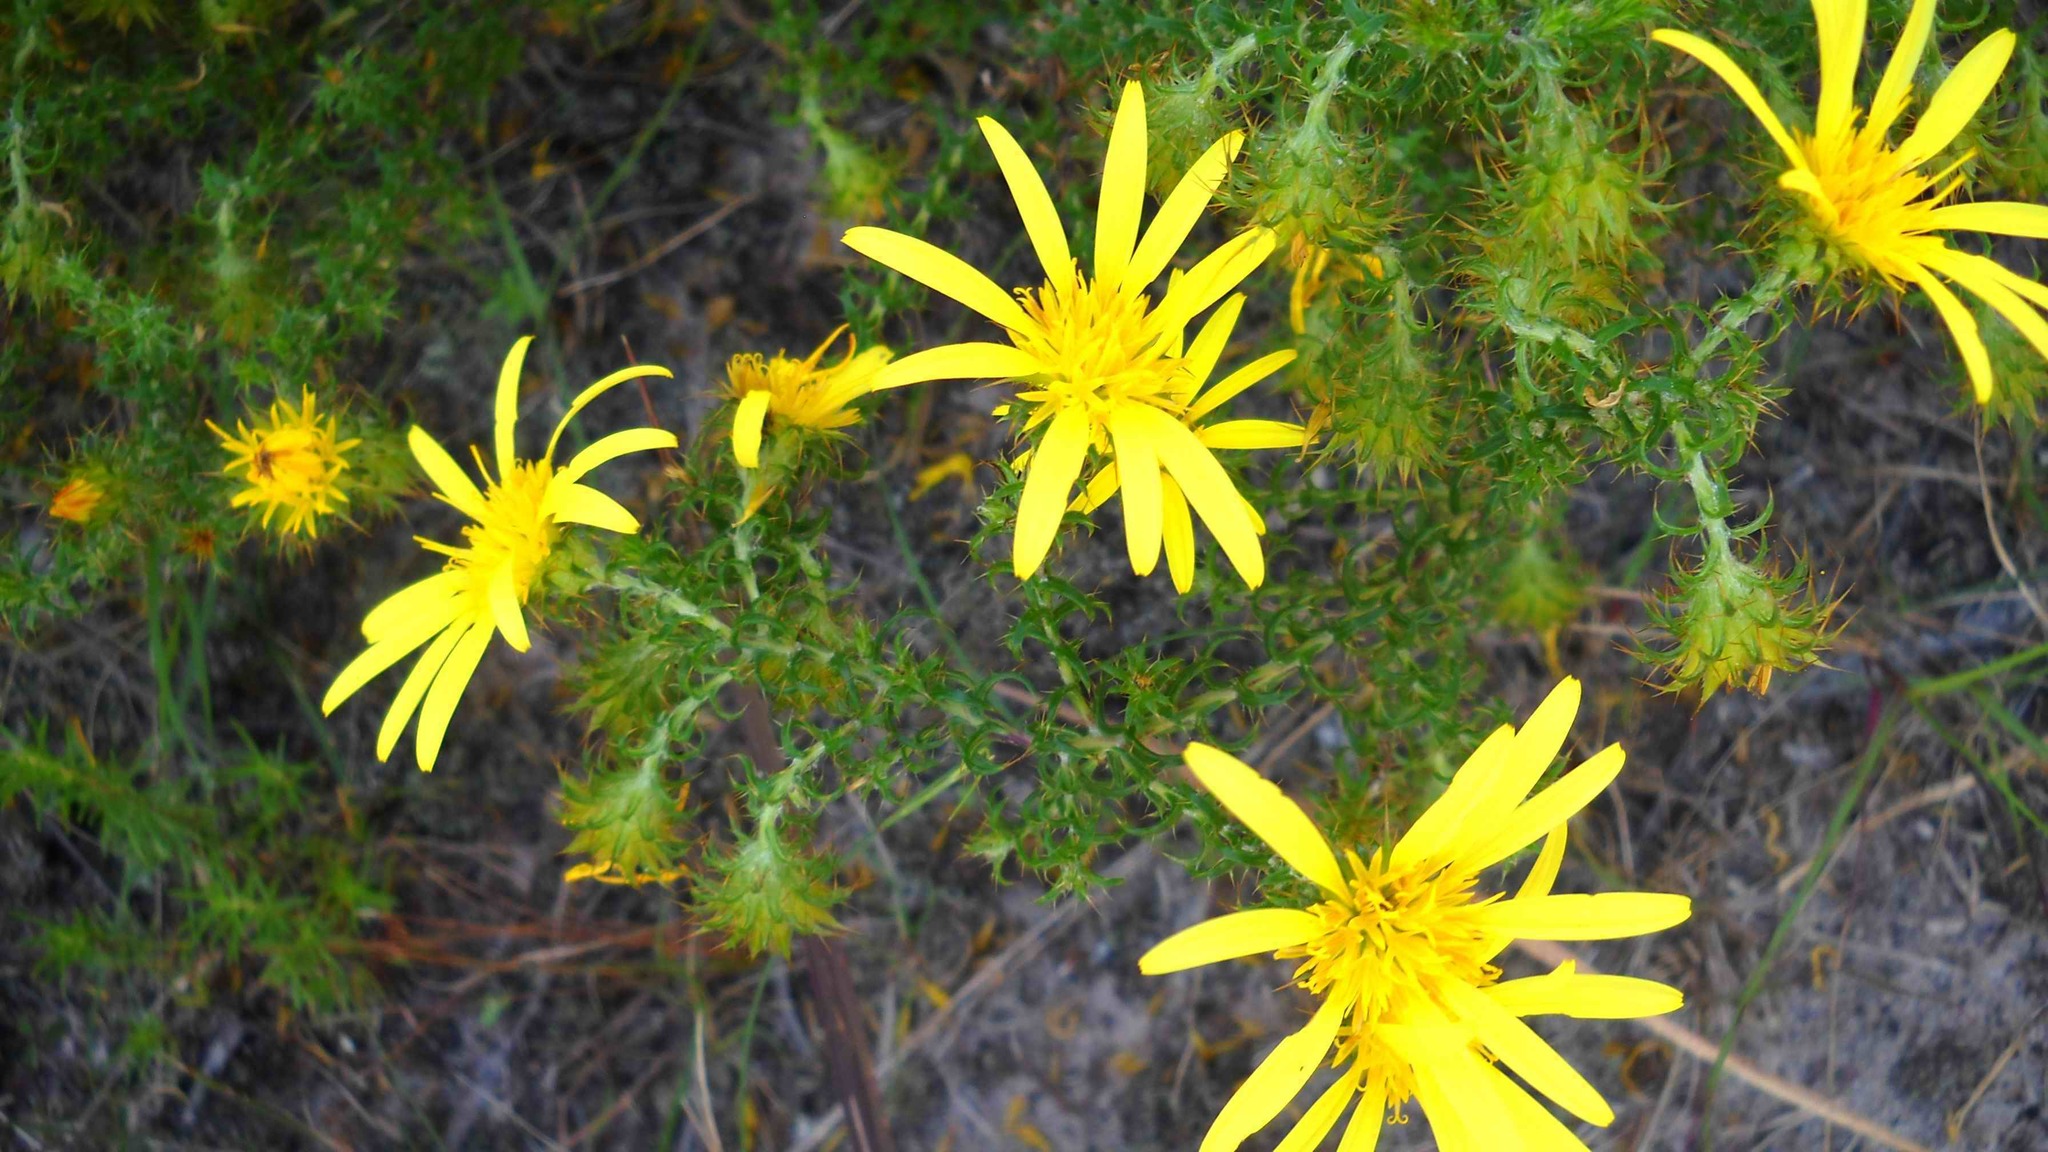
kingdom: Plantae
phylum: Tracheophyta
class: Magnoliopsida
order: Asterales
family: Asteraceae
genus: Cullumia
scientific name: Cullumia carlinoides
